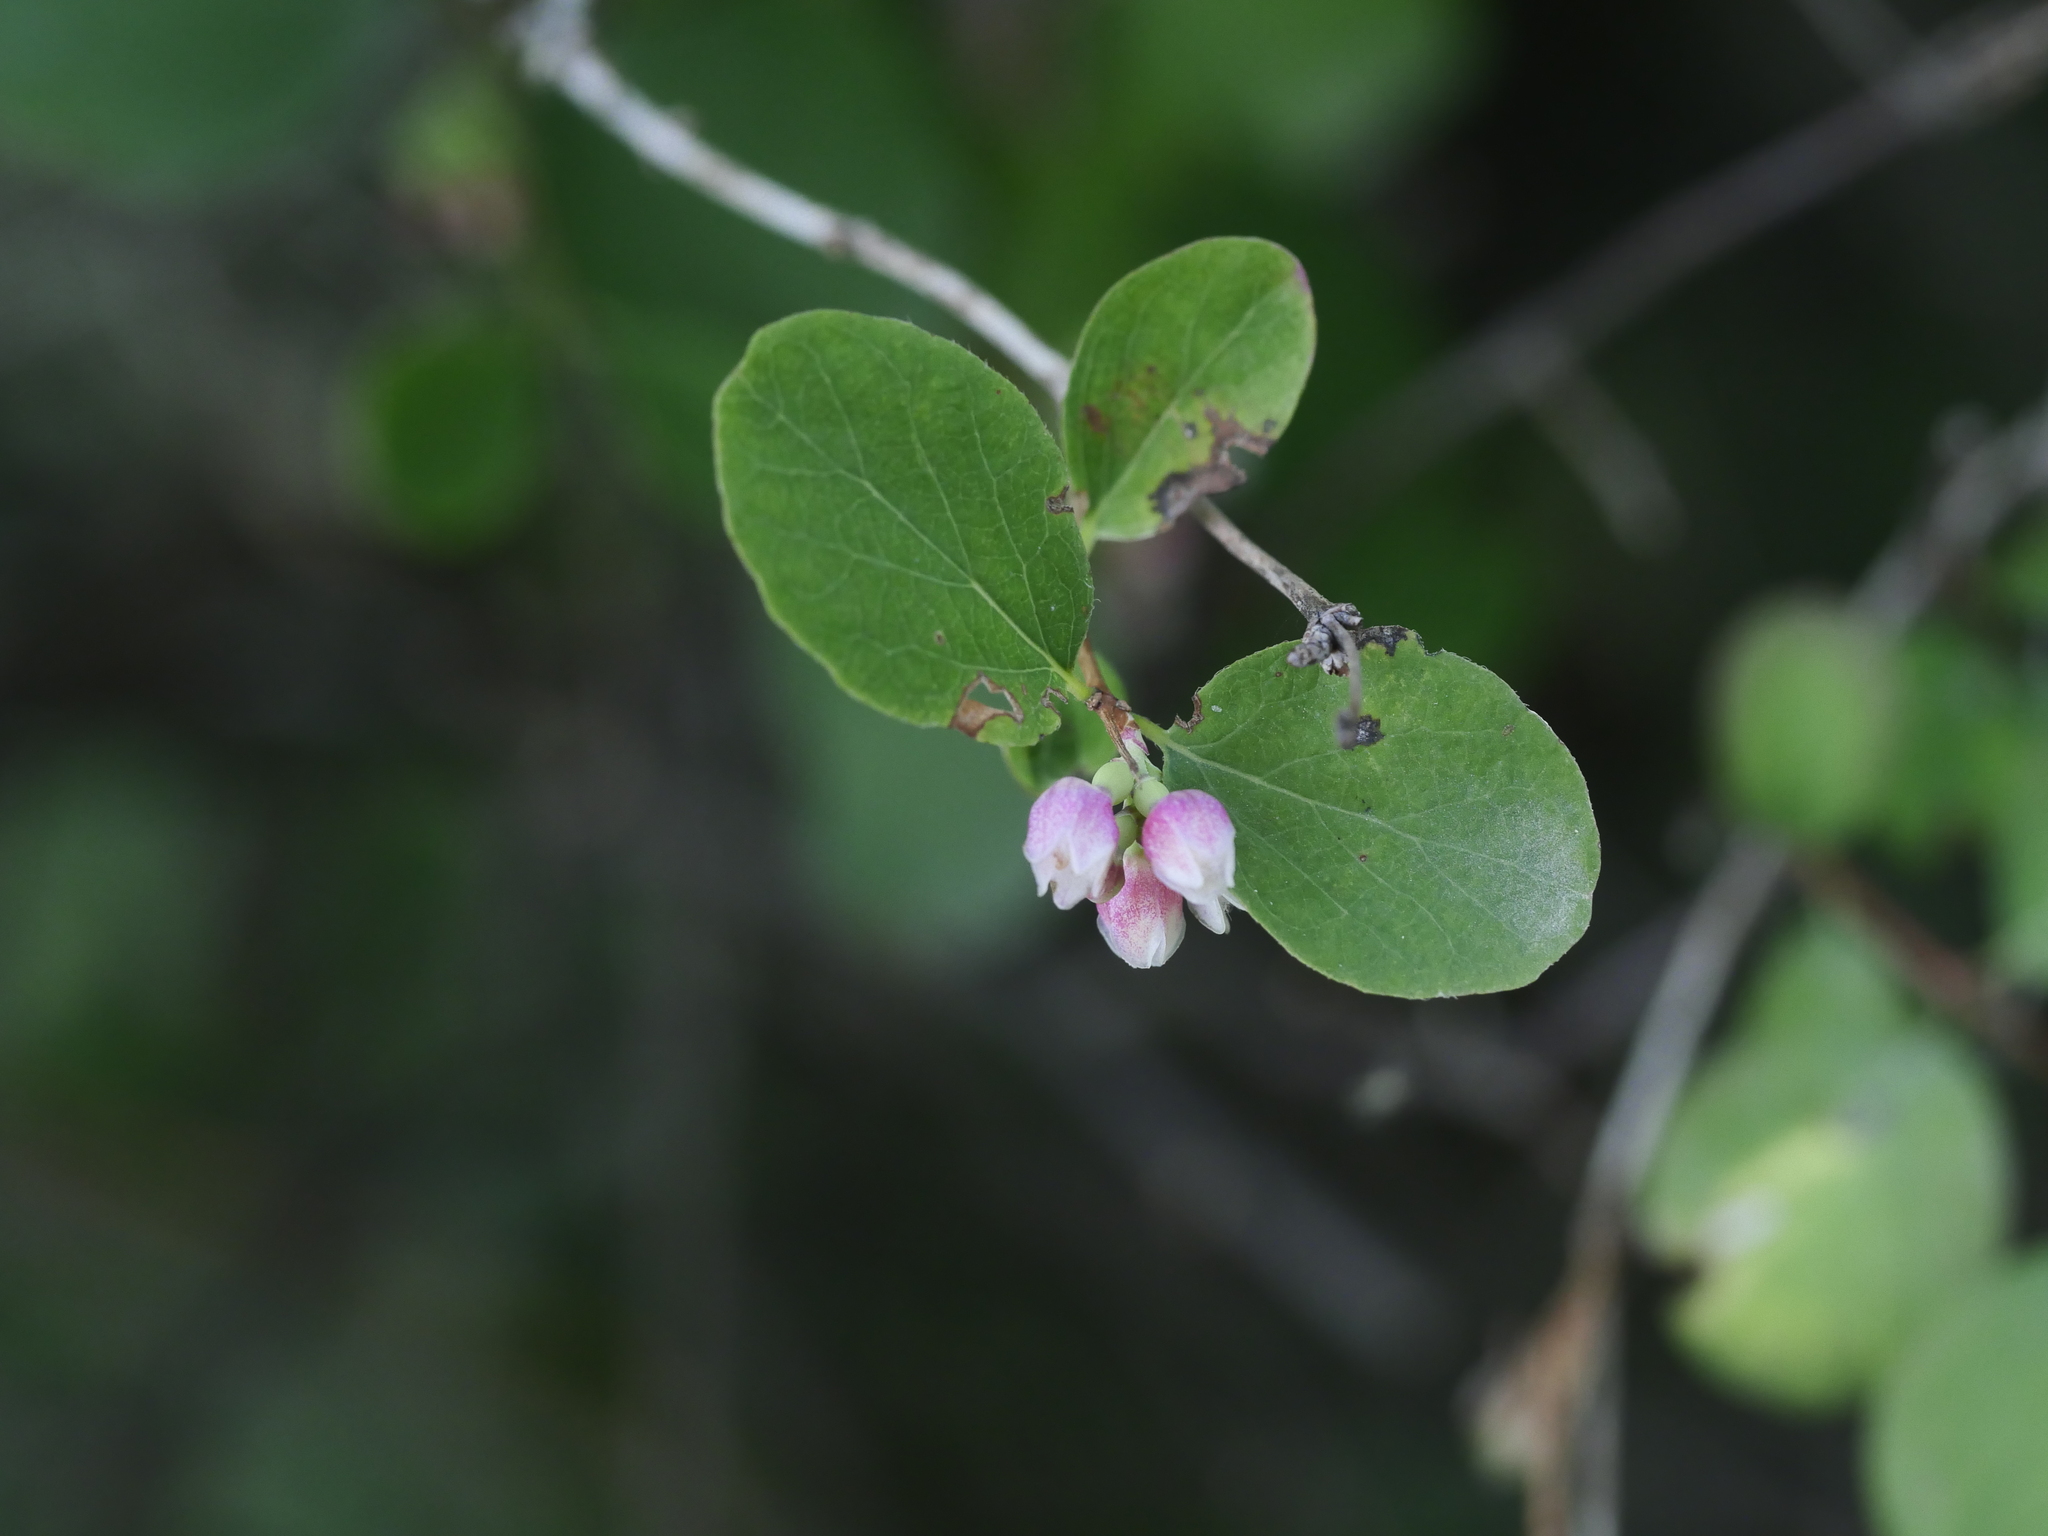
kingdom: Plantae
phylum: Tracheophyta
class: Magnoliopsida
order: Dipsacales
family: Caprifoliaceae
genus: Symphoricarpos
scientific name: Symphoricarpos albus
